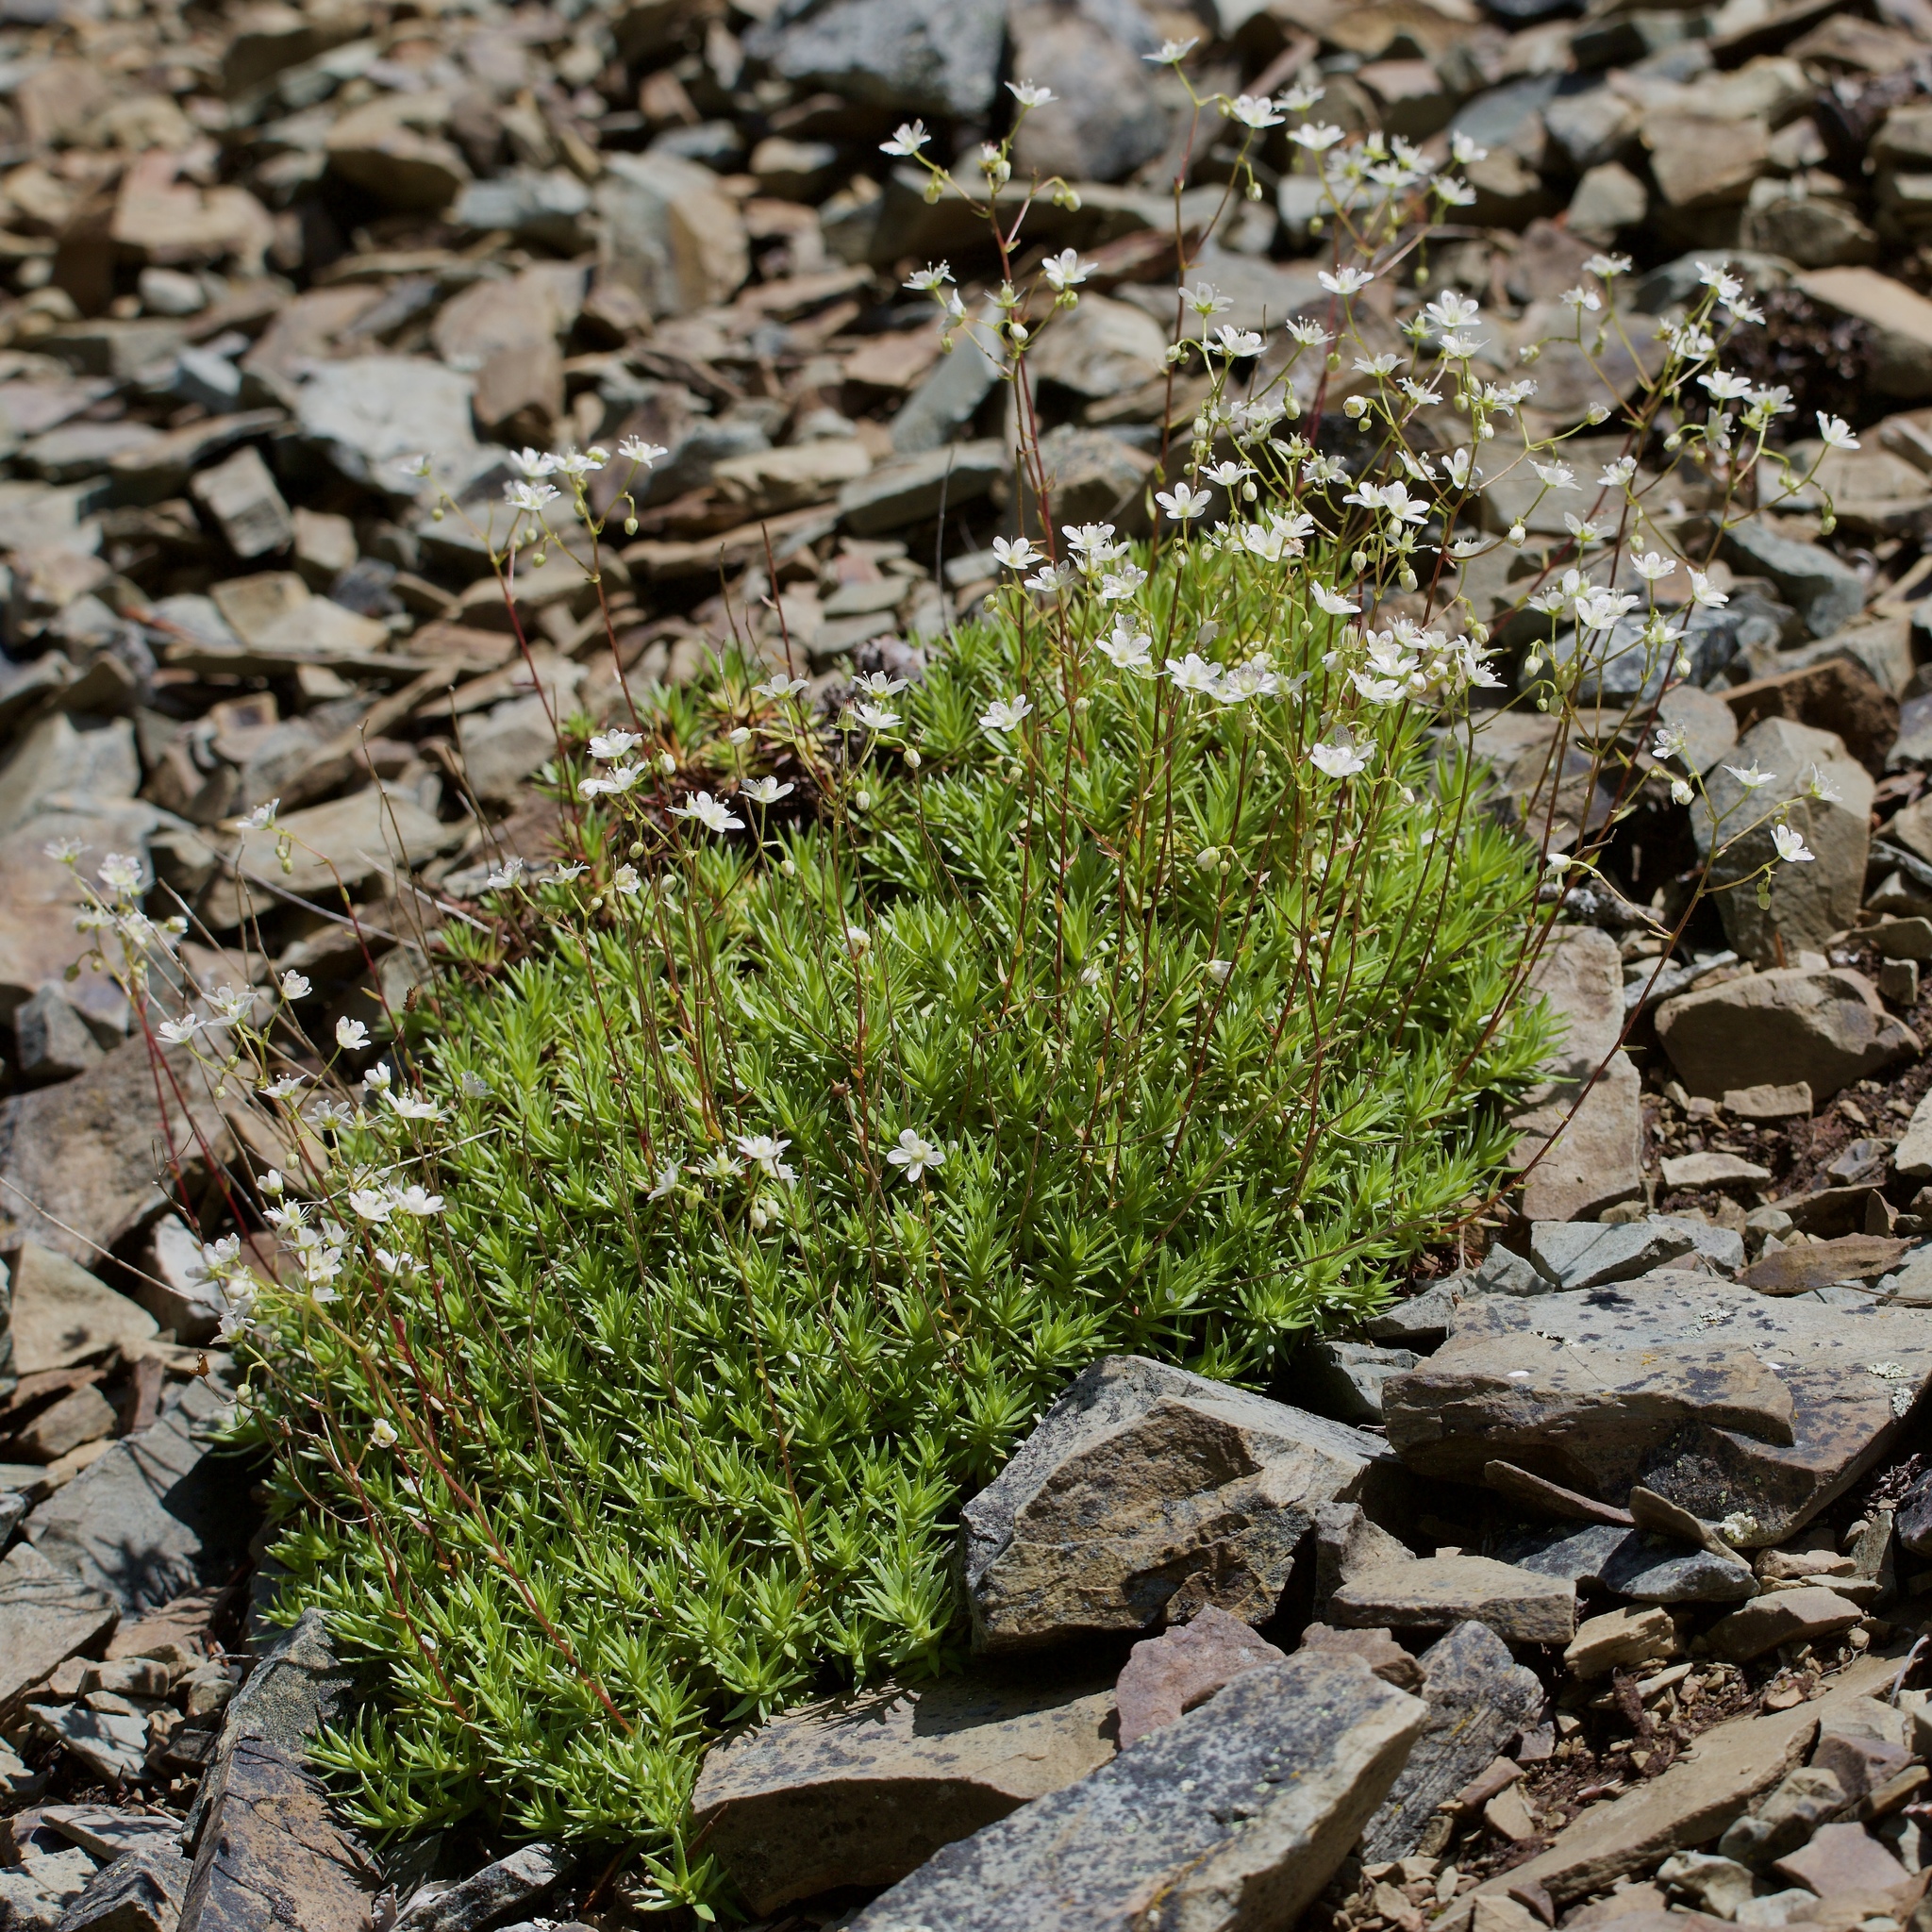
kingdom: Plantae
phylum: Tracheophyta
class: Magnoliopsida
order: Saxifragales
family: Saxifragaceae
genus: Saxifraga
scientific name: Saxifraga bronchialis
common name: Matted saxifrage
